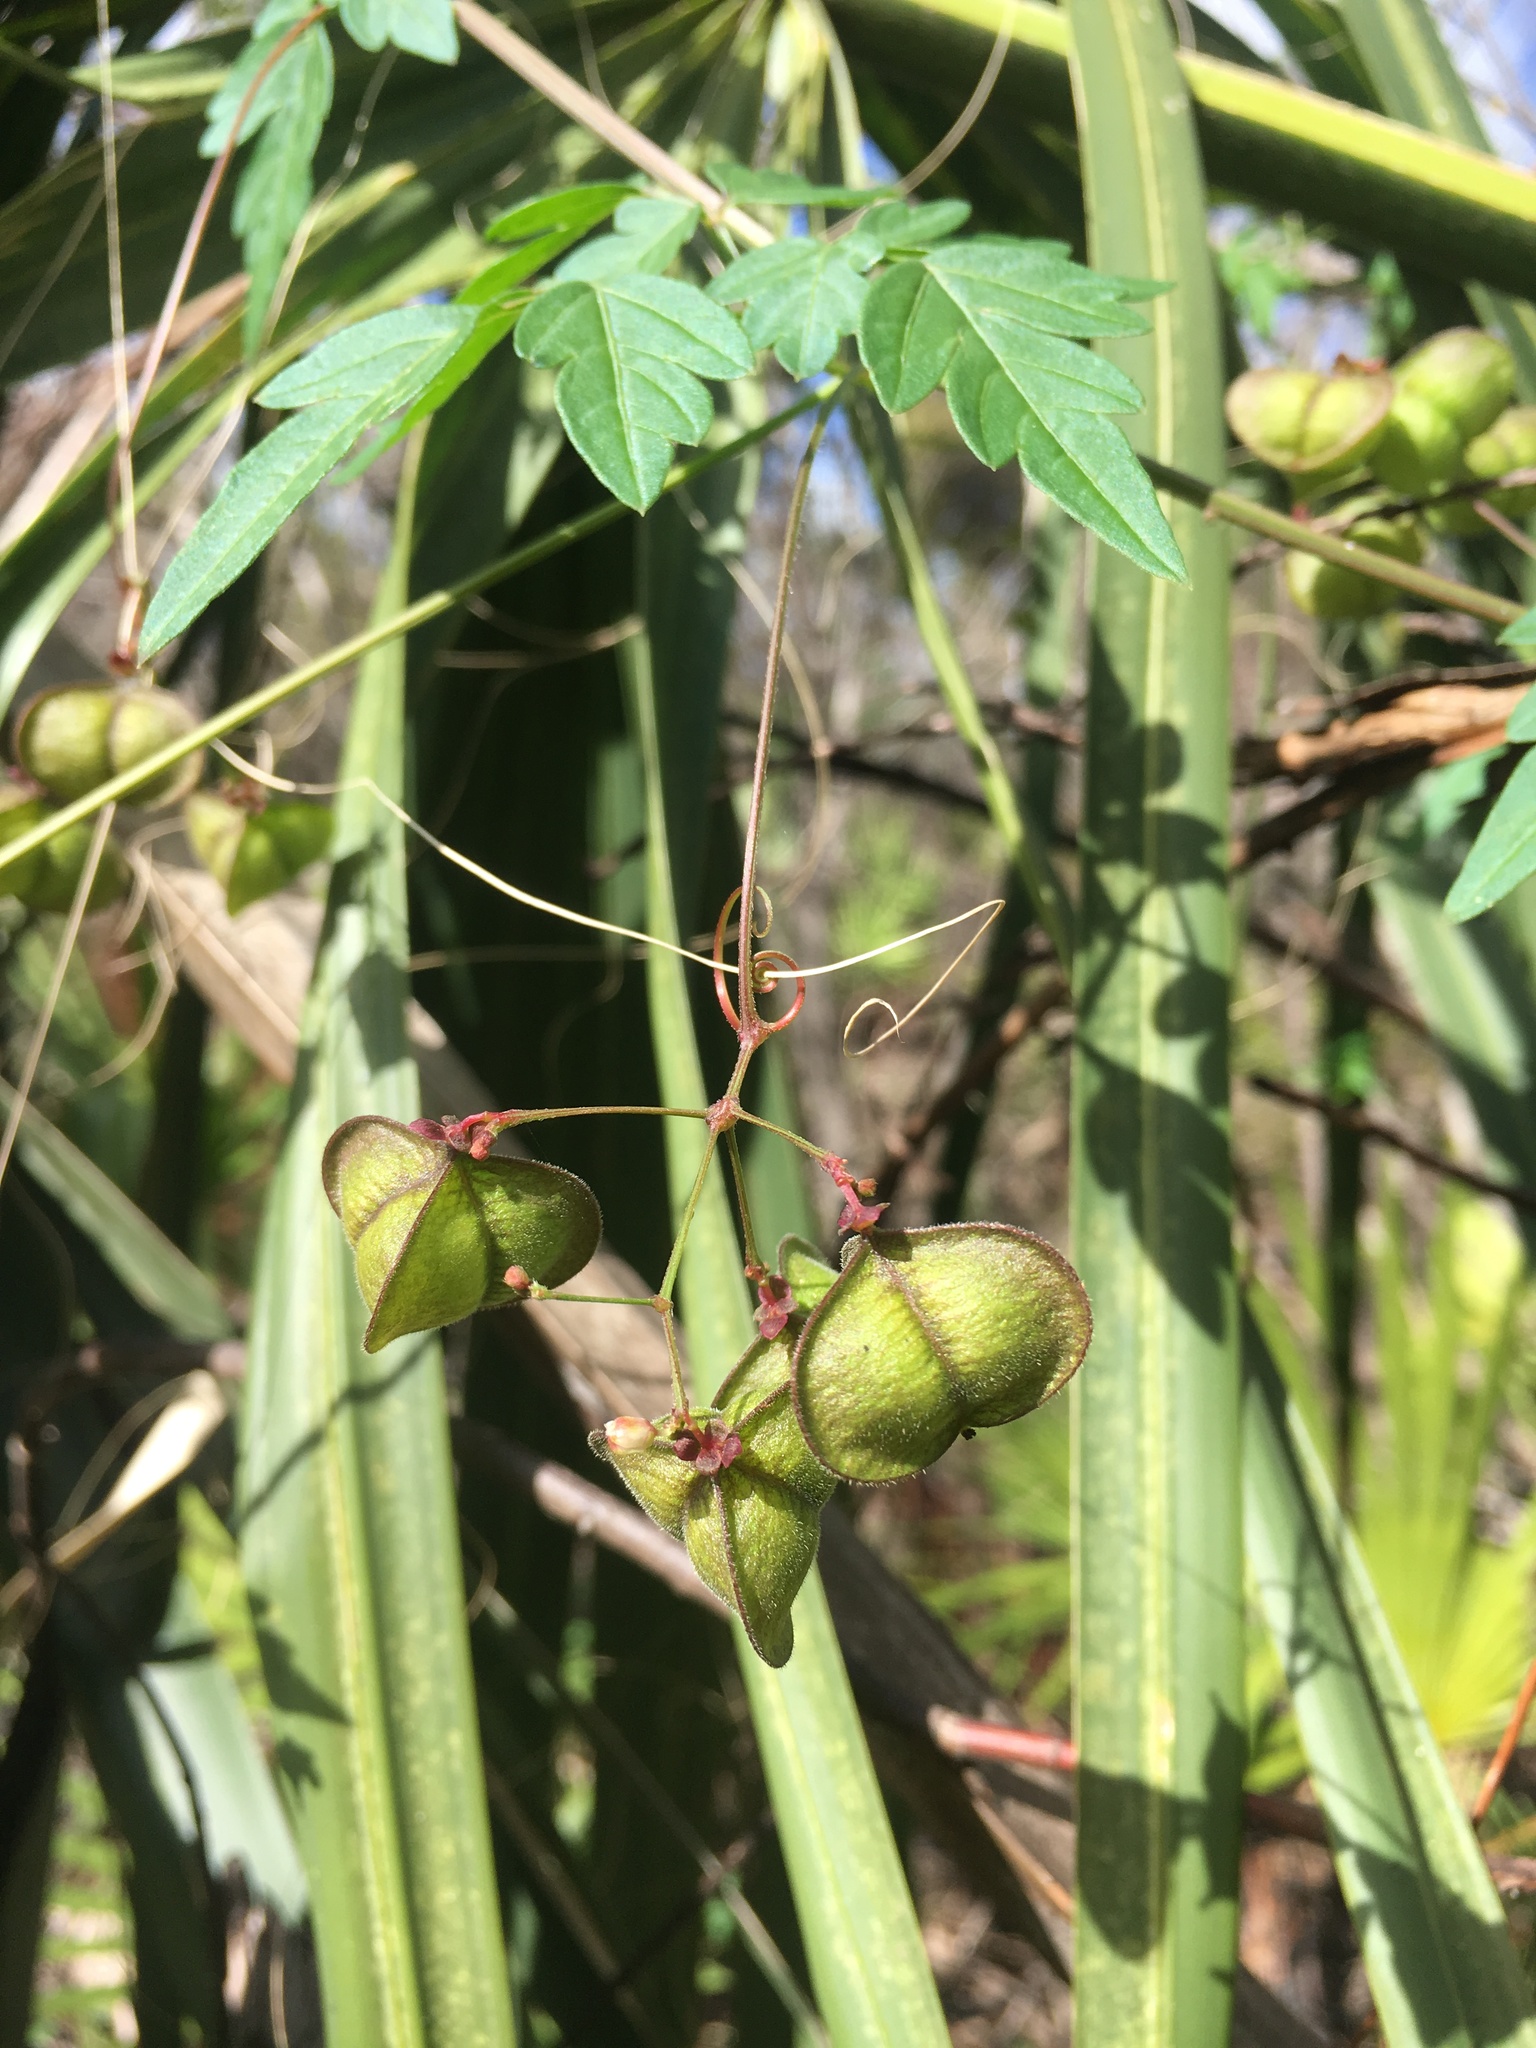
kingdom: Plantae
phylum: Tracheophyta
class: Magnoliopsida
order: Sapindales
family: Sapindaceae
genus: Cardiospermum
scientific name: Cardiospermum halicacabum
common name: Balloon vine
